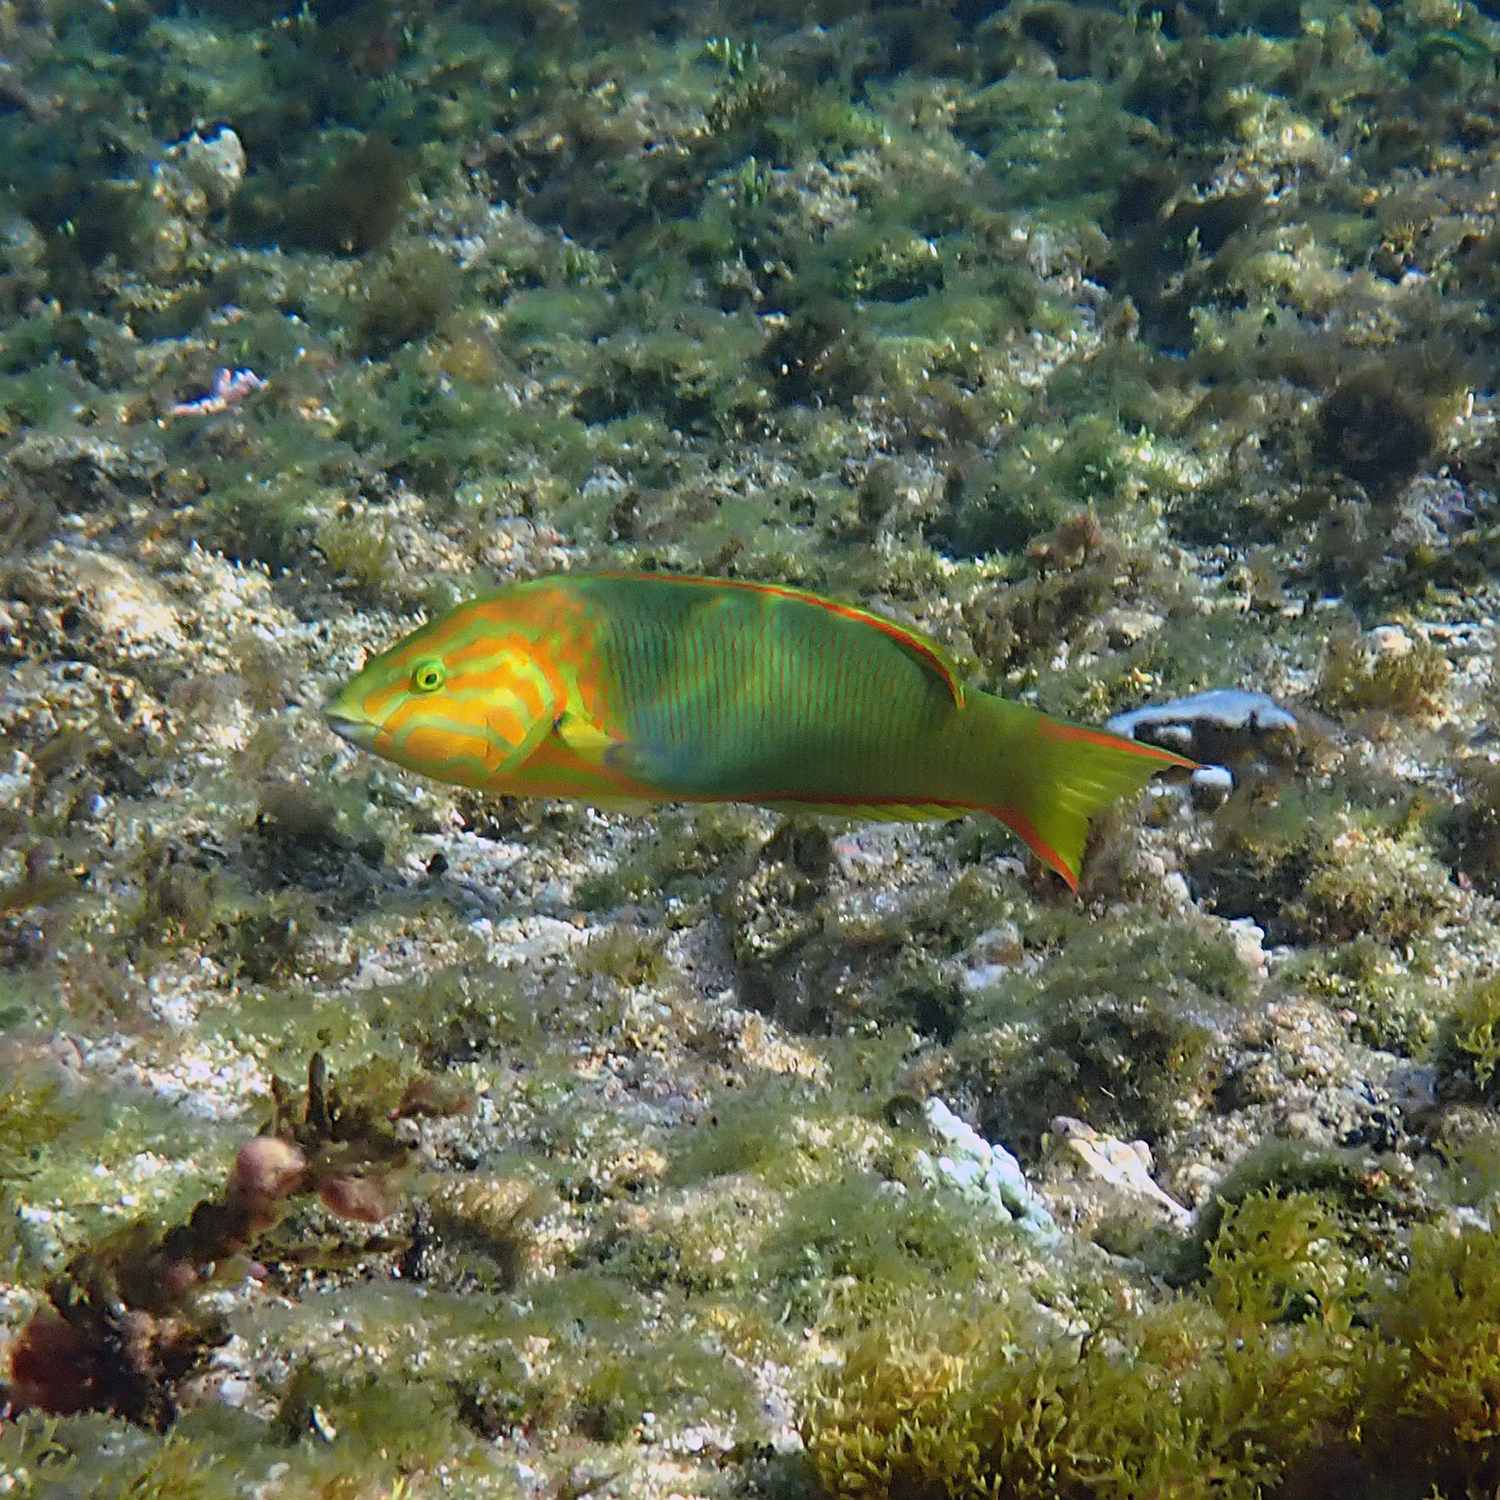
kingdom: Animalia
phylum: Chordata
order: Perciformes
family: Labridae
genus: Thalassoma
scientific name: Thalassoma lutescens
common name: Green moon wrasse
